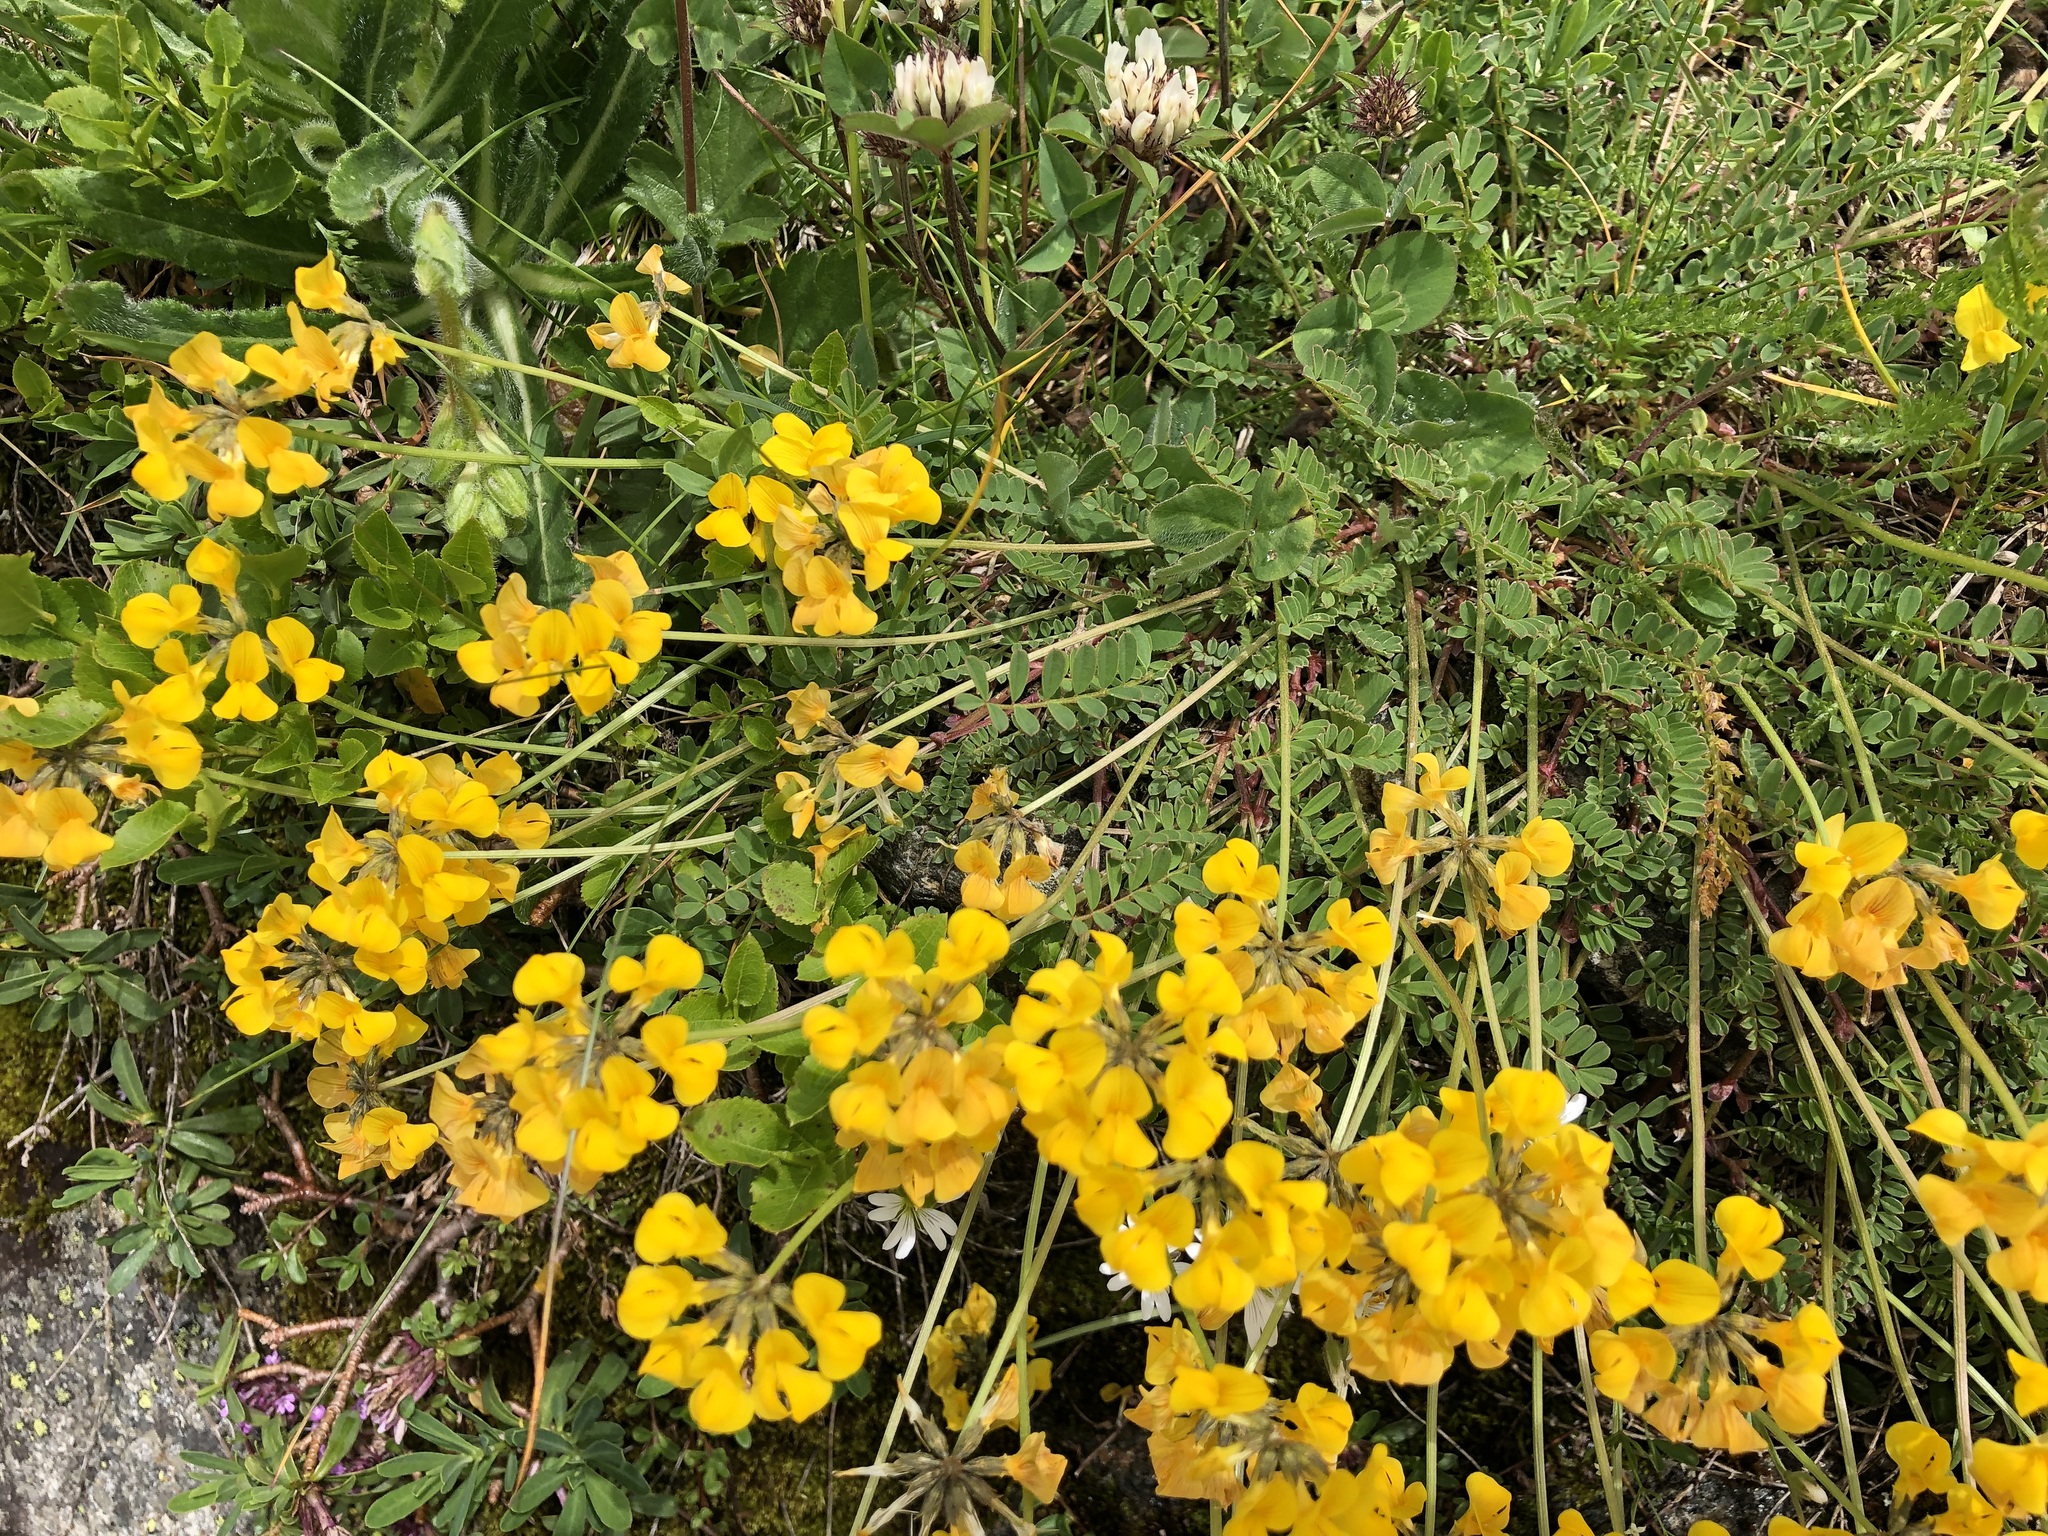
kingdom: Plantae
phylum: Tracheophyta
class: Magnoliopsida
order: Fabales
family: Fabaceae
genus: Hippocrepis
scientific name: Hippocrepis comosa
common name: Horseshoe vetch
